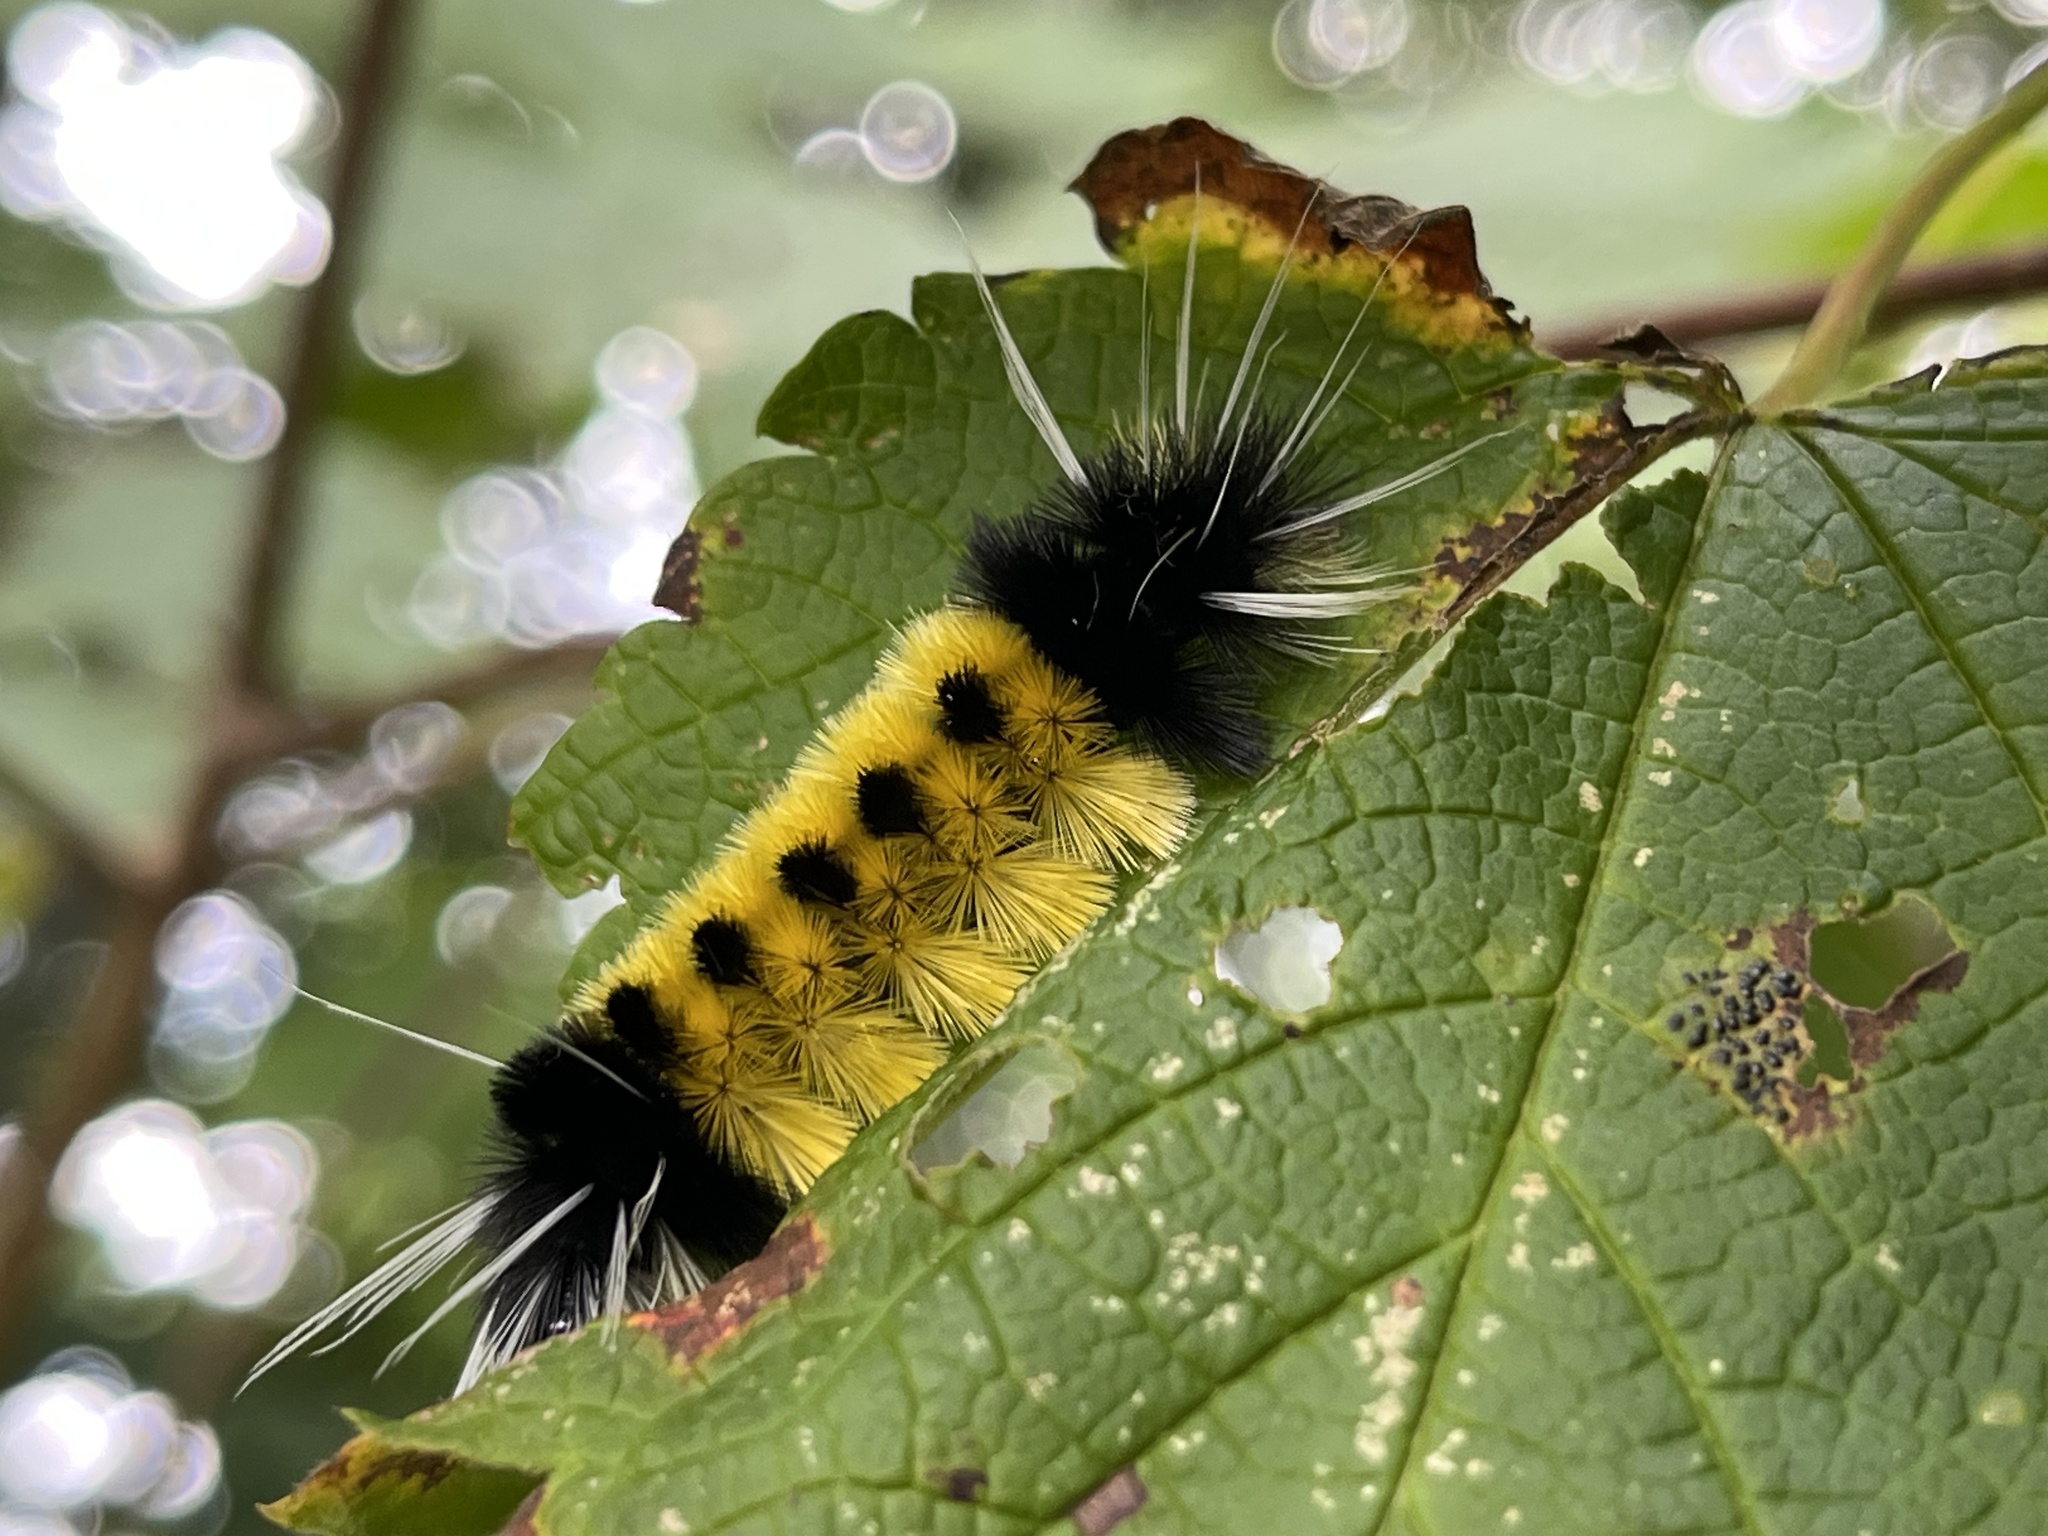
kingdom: Animalia
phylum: Arthropoda
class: Insecta
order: Lepidoptera
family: Erebidae
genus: Lophocampa
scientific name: Lophocampa maculata
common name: Spotted tussock moth
